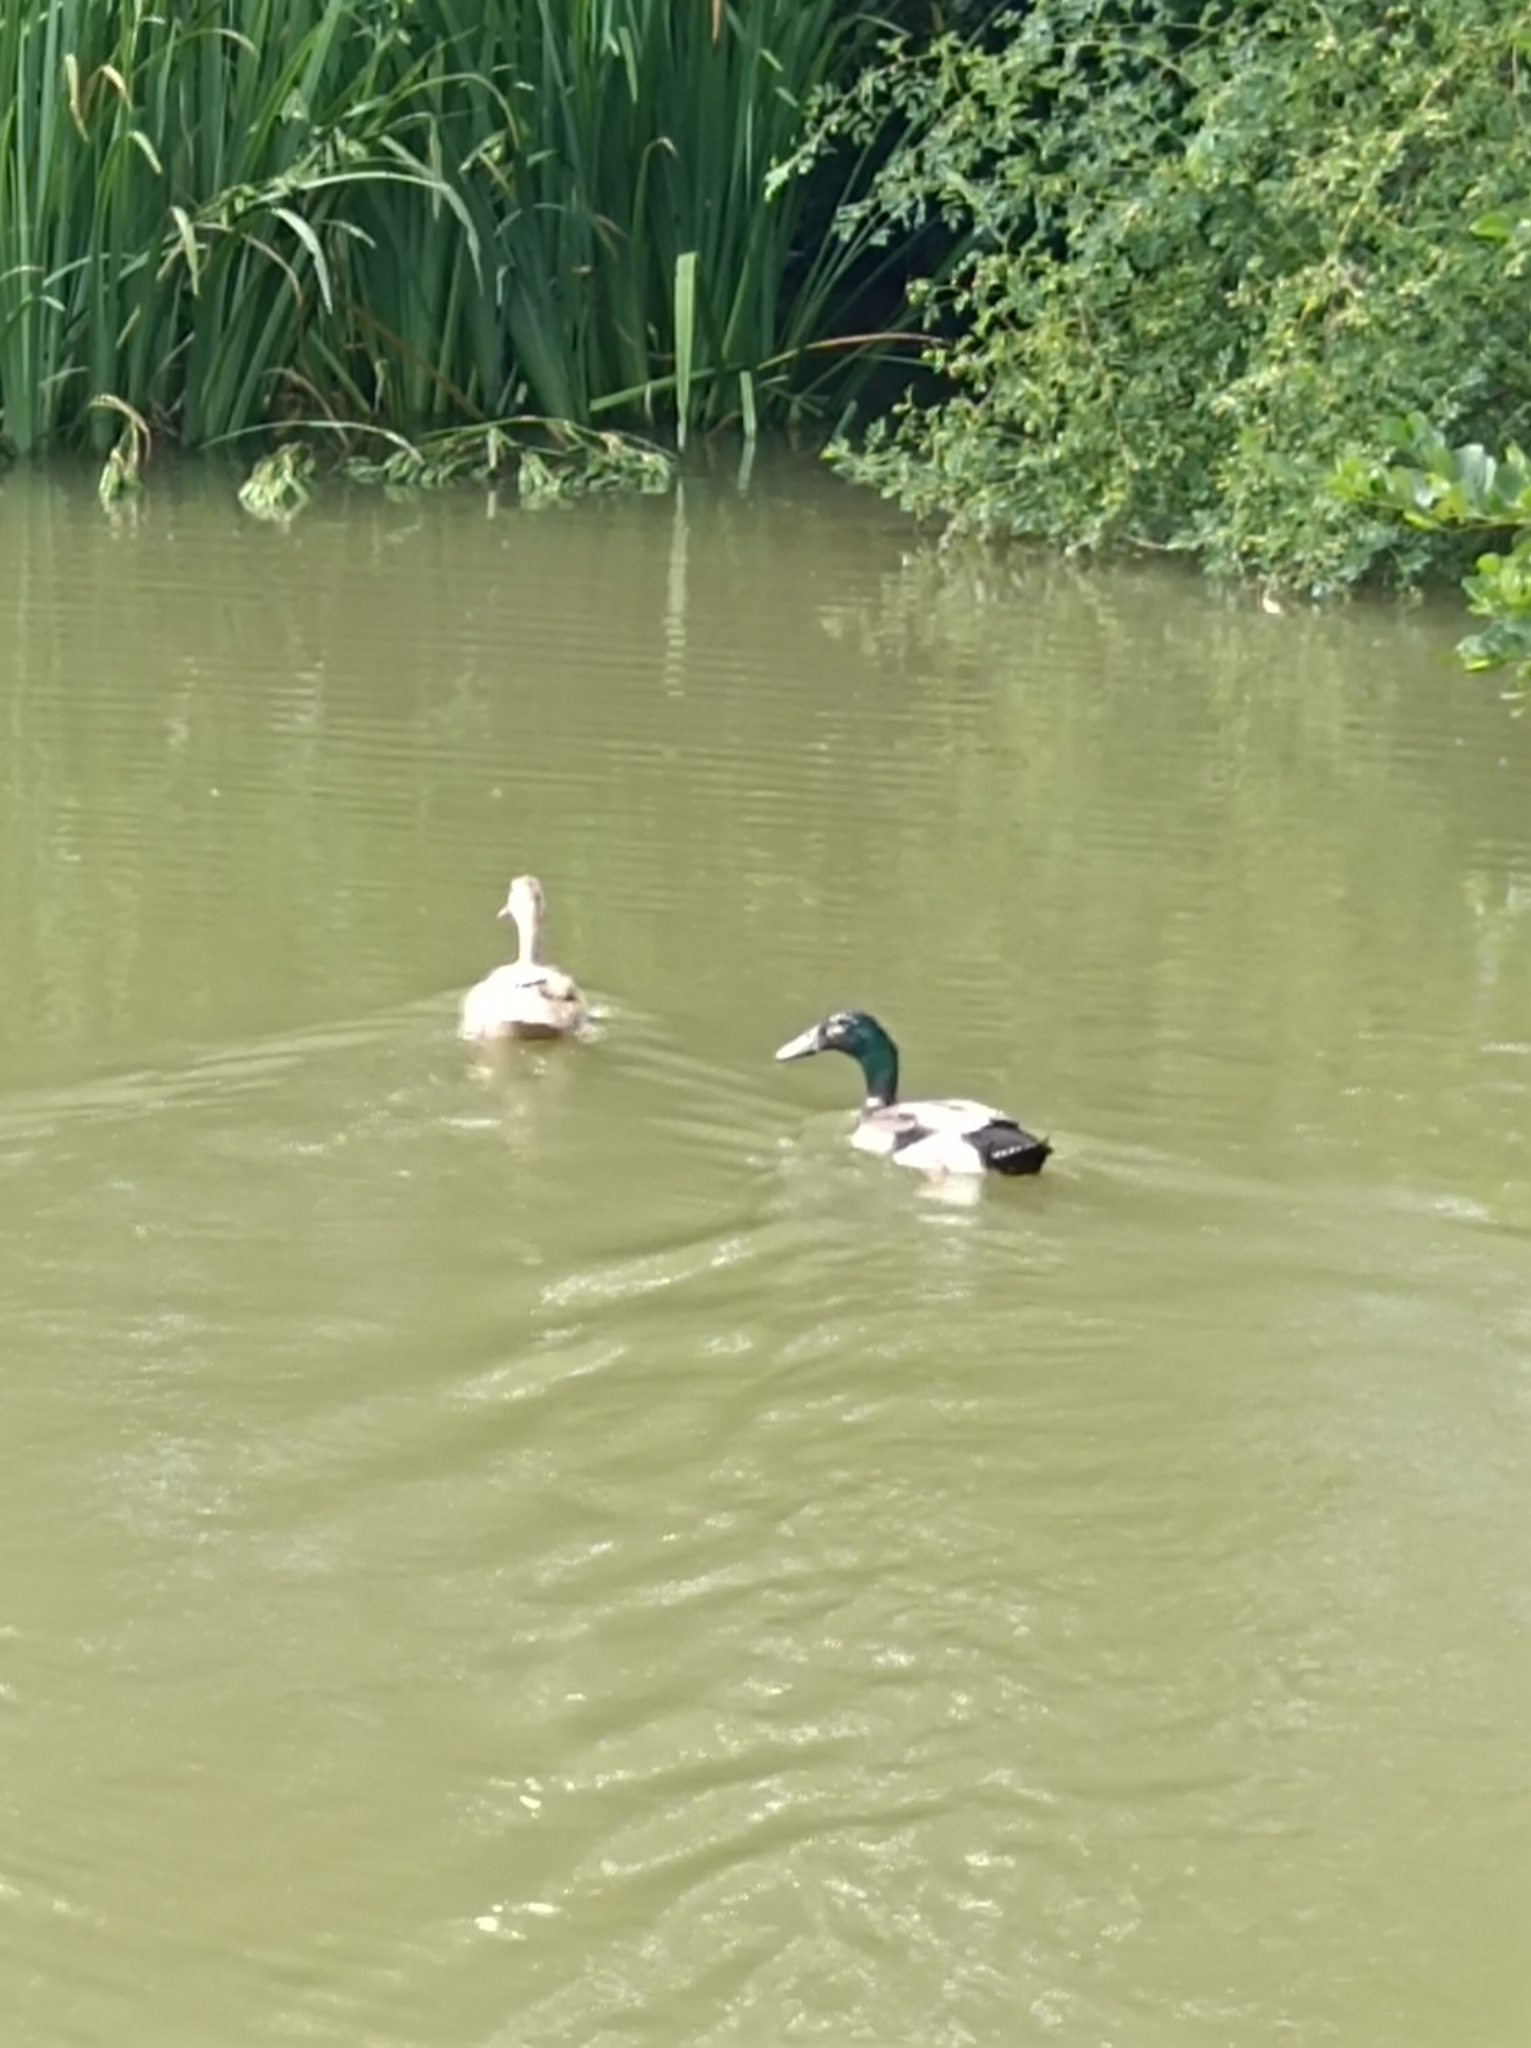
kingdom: Animalia
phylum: Chordata
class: Aves
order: Anseriformes
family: Anatidae
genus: Anas
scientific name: Anas platyrhynchos
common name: Mallard
